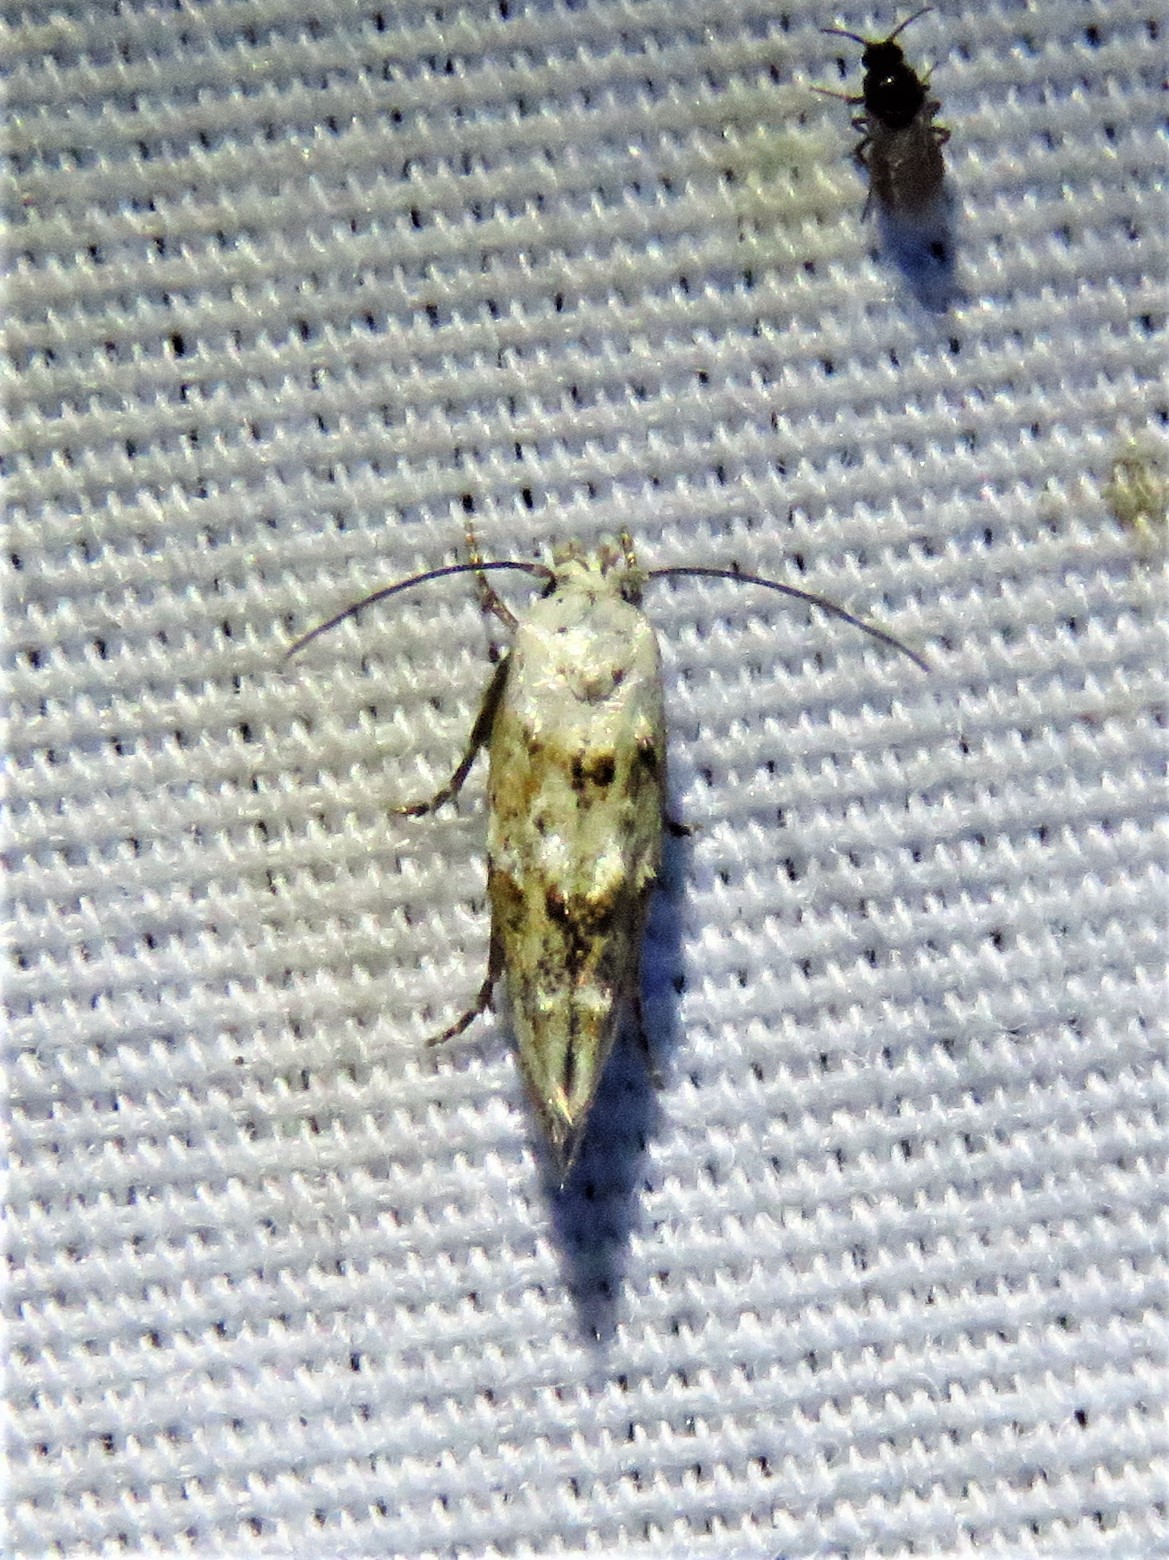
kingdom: Animalia
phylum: Arthropoda
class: Insecta
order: Lepidoptera
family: Momphidae
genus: Mompha
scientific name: Mompha albocapitella
